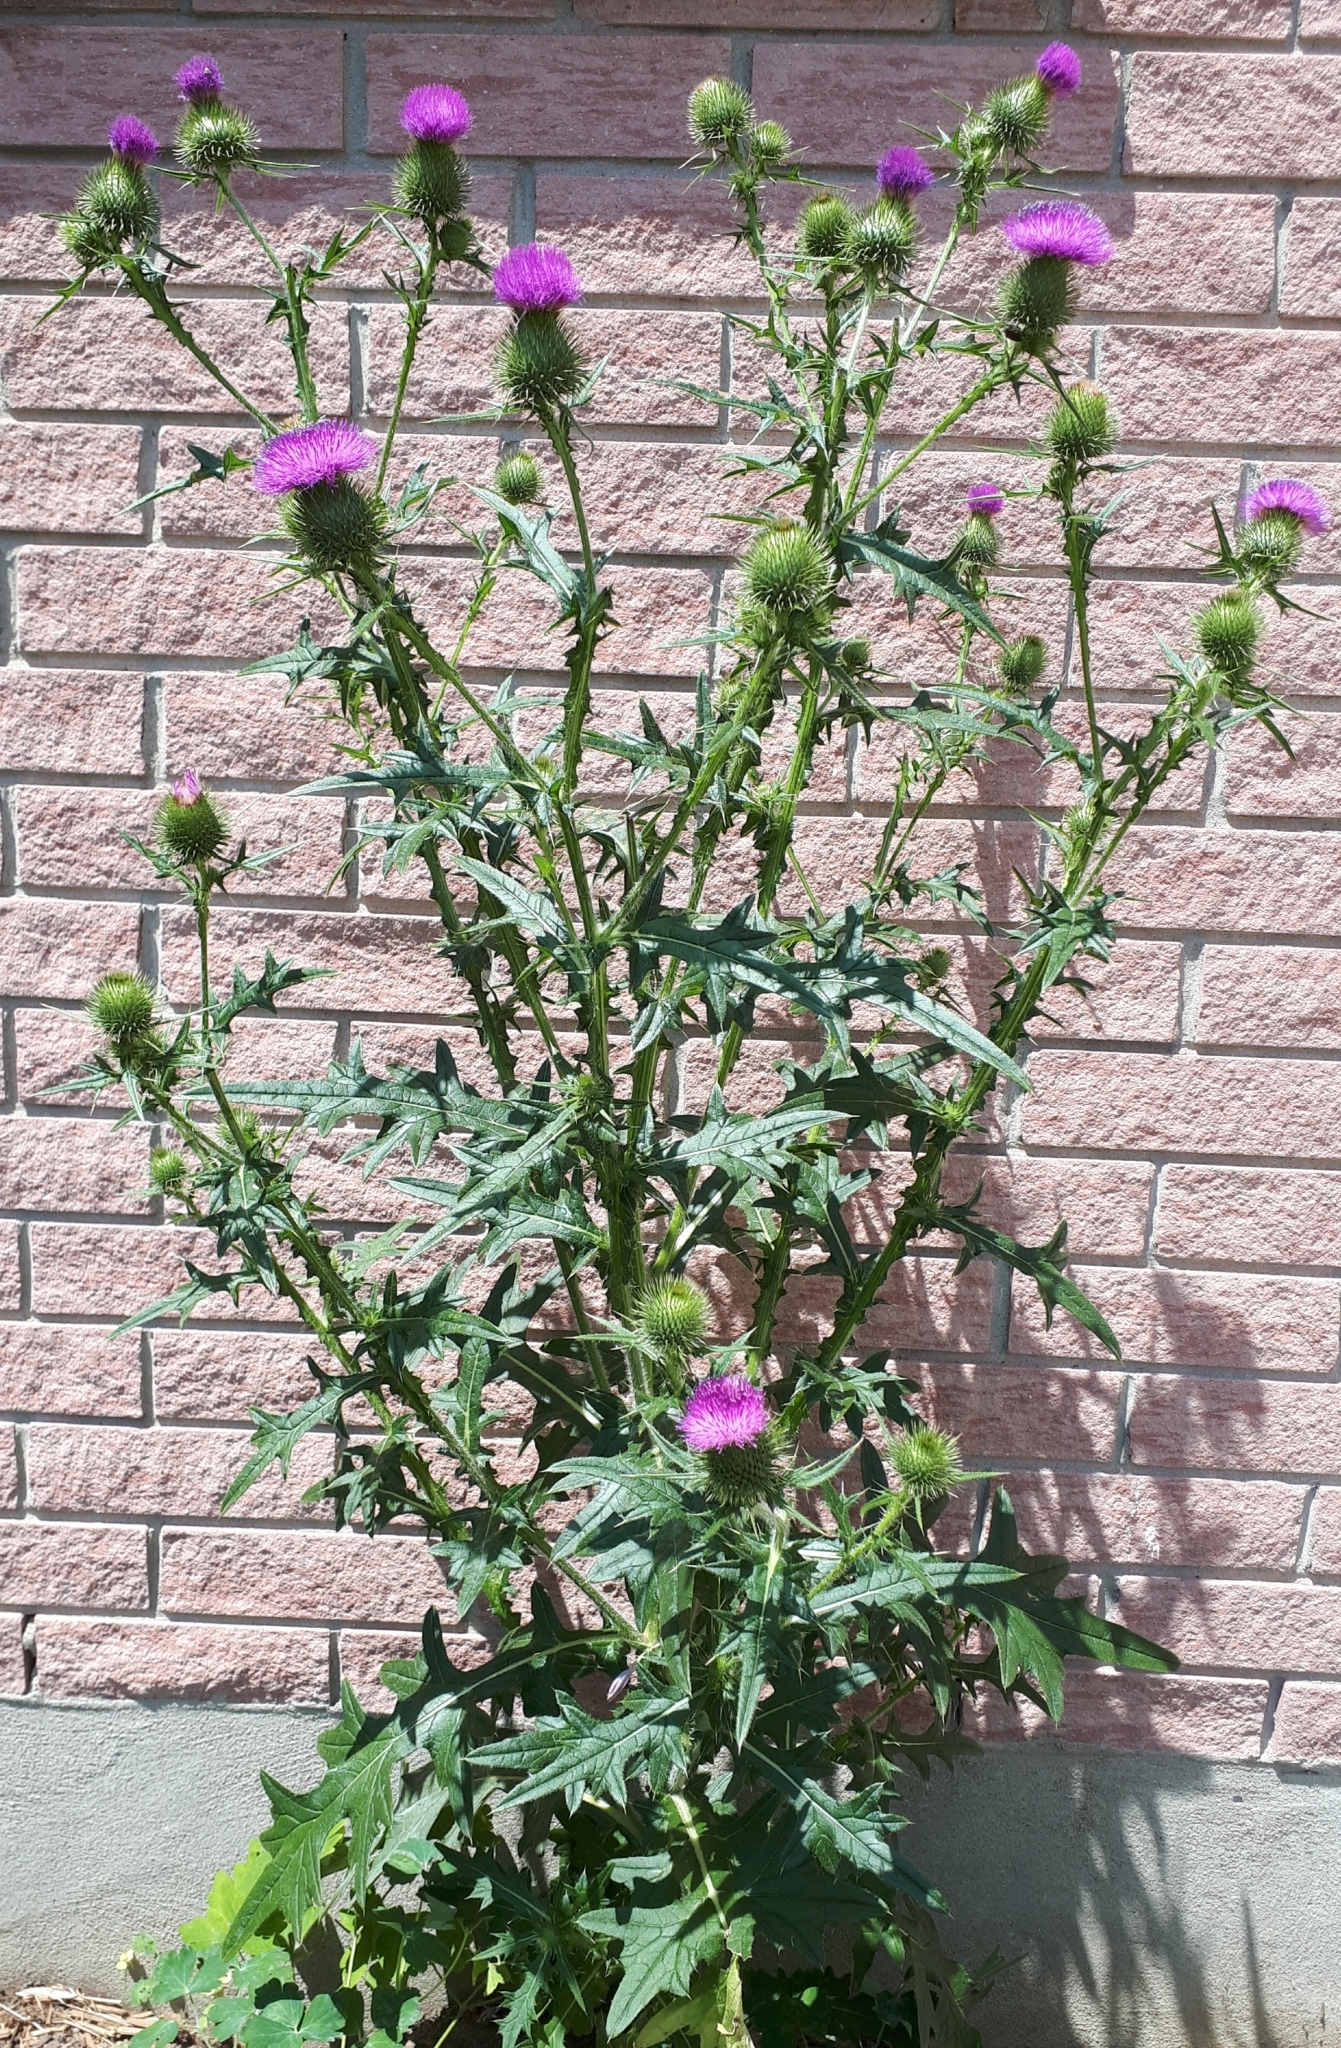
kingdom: Plantae
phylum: Tracheophyta
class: Magnoliopsida
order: Asterales
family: Asteraceae
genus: Cirsium
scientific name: Cirsium vulgare
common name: Bull thistle
